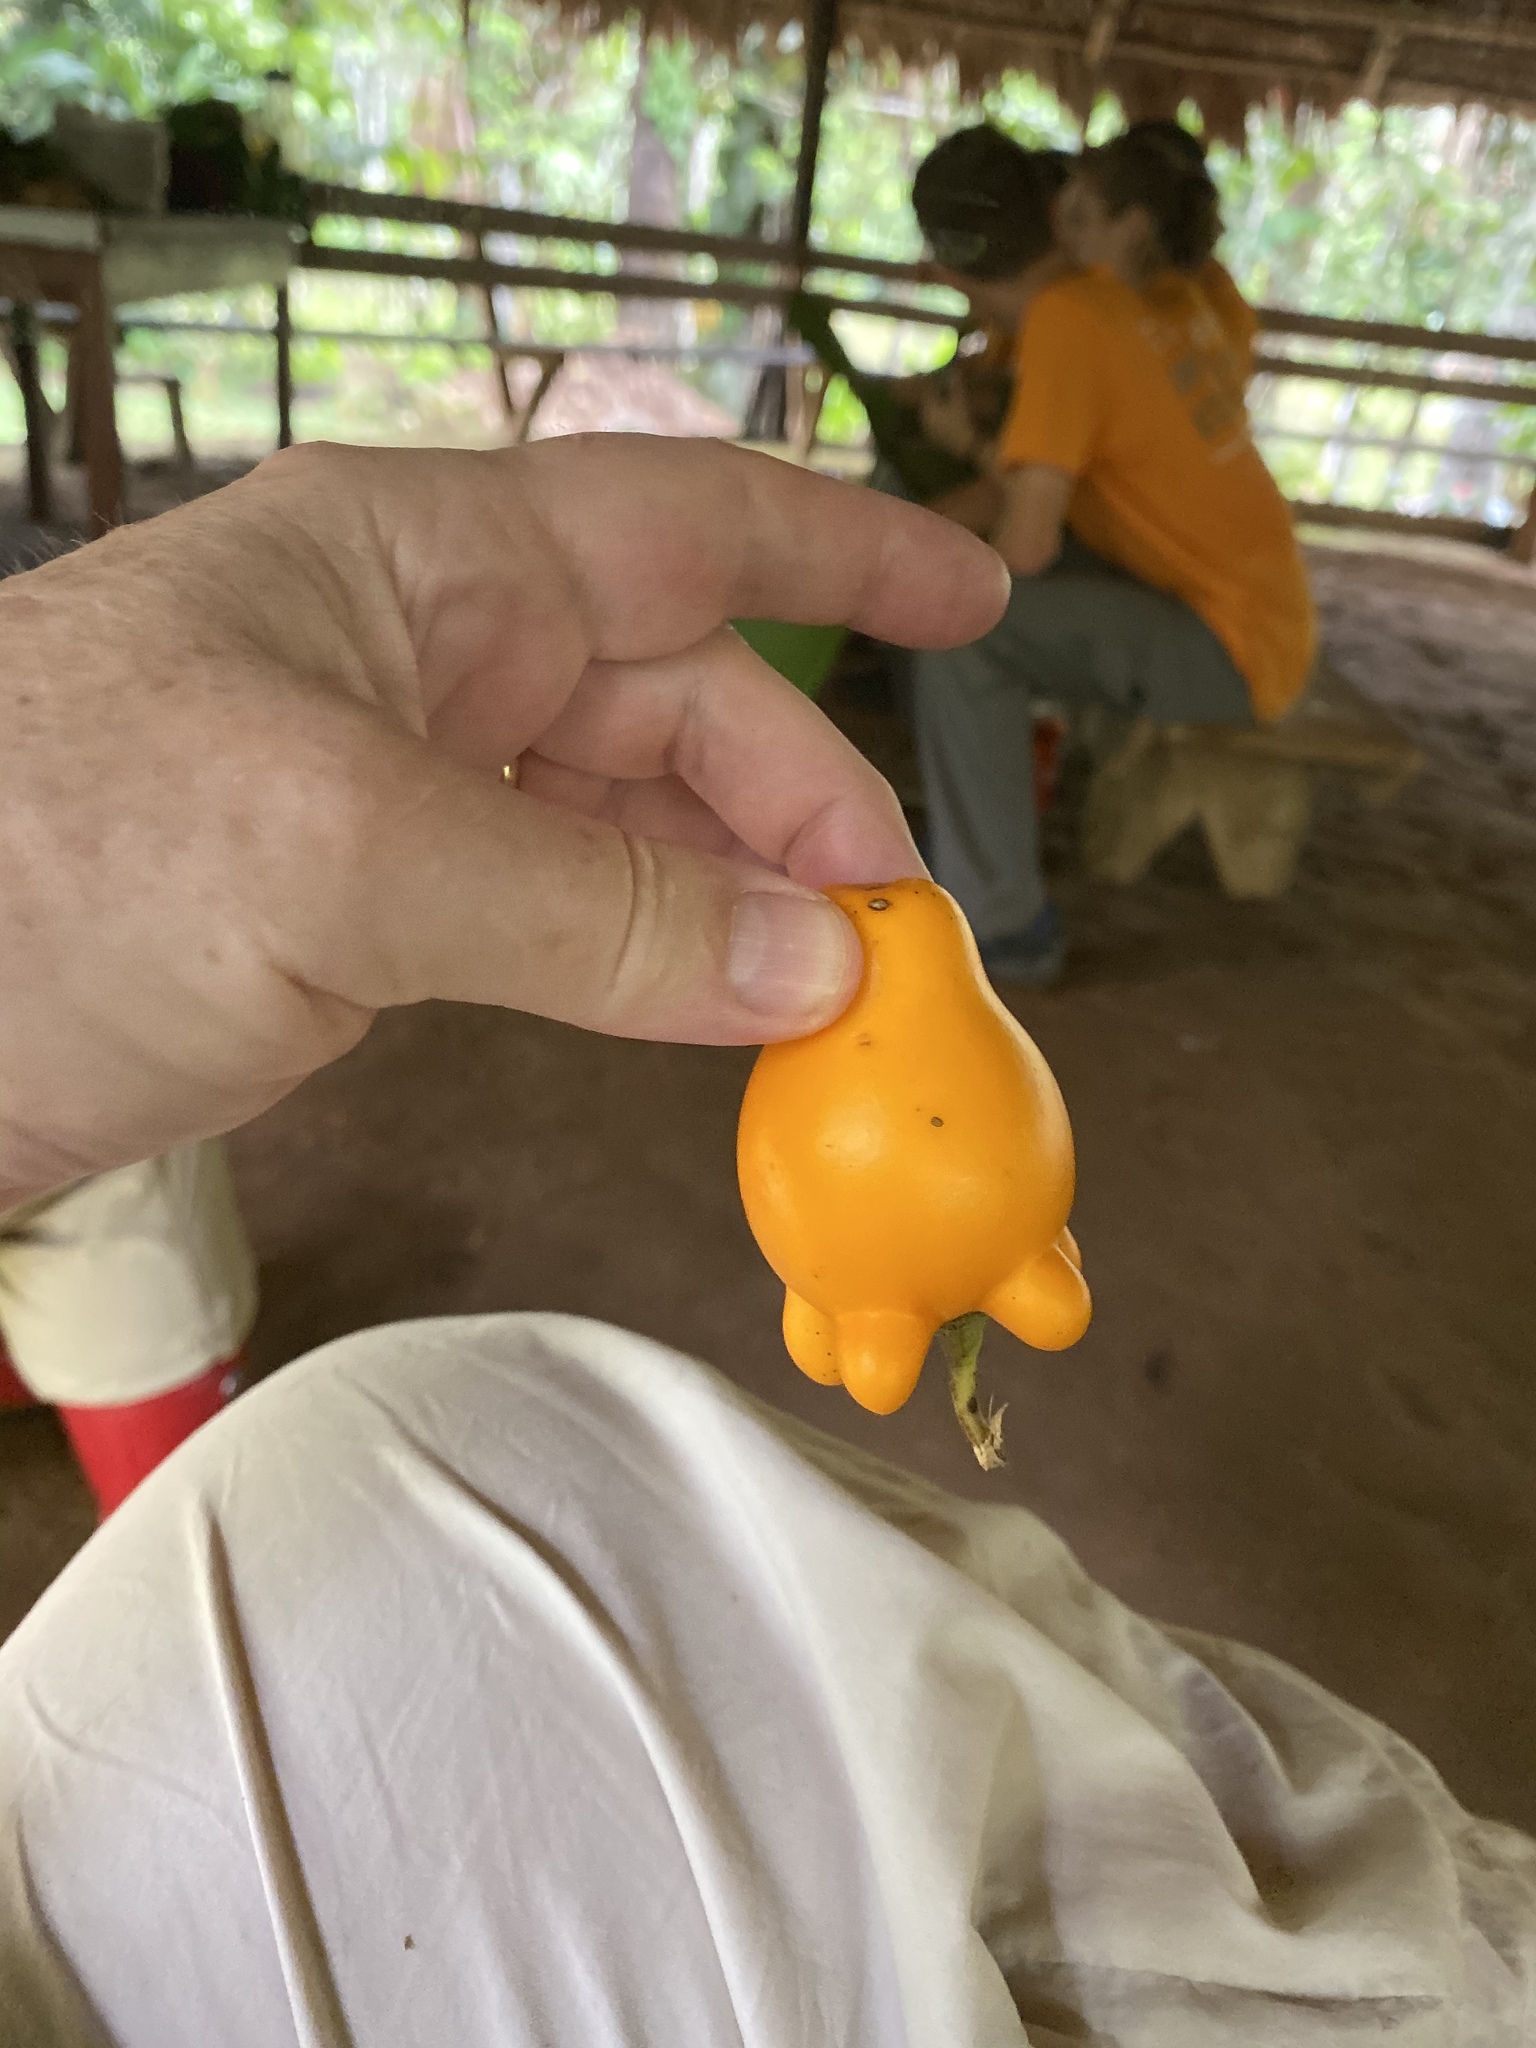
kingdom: Plantae
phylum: Tracheophyta
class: Magnoliopsida
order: Solanales
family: Solanaceae
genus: Solanum
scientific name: Solanum mammosum
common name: Nipple fruit
